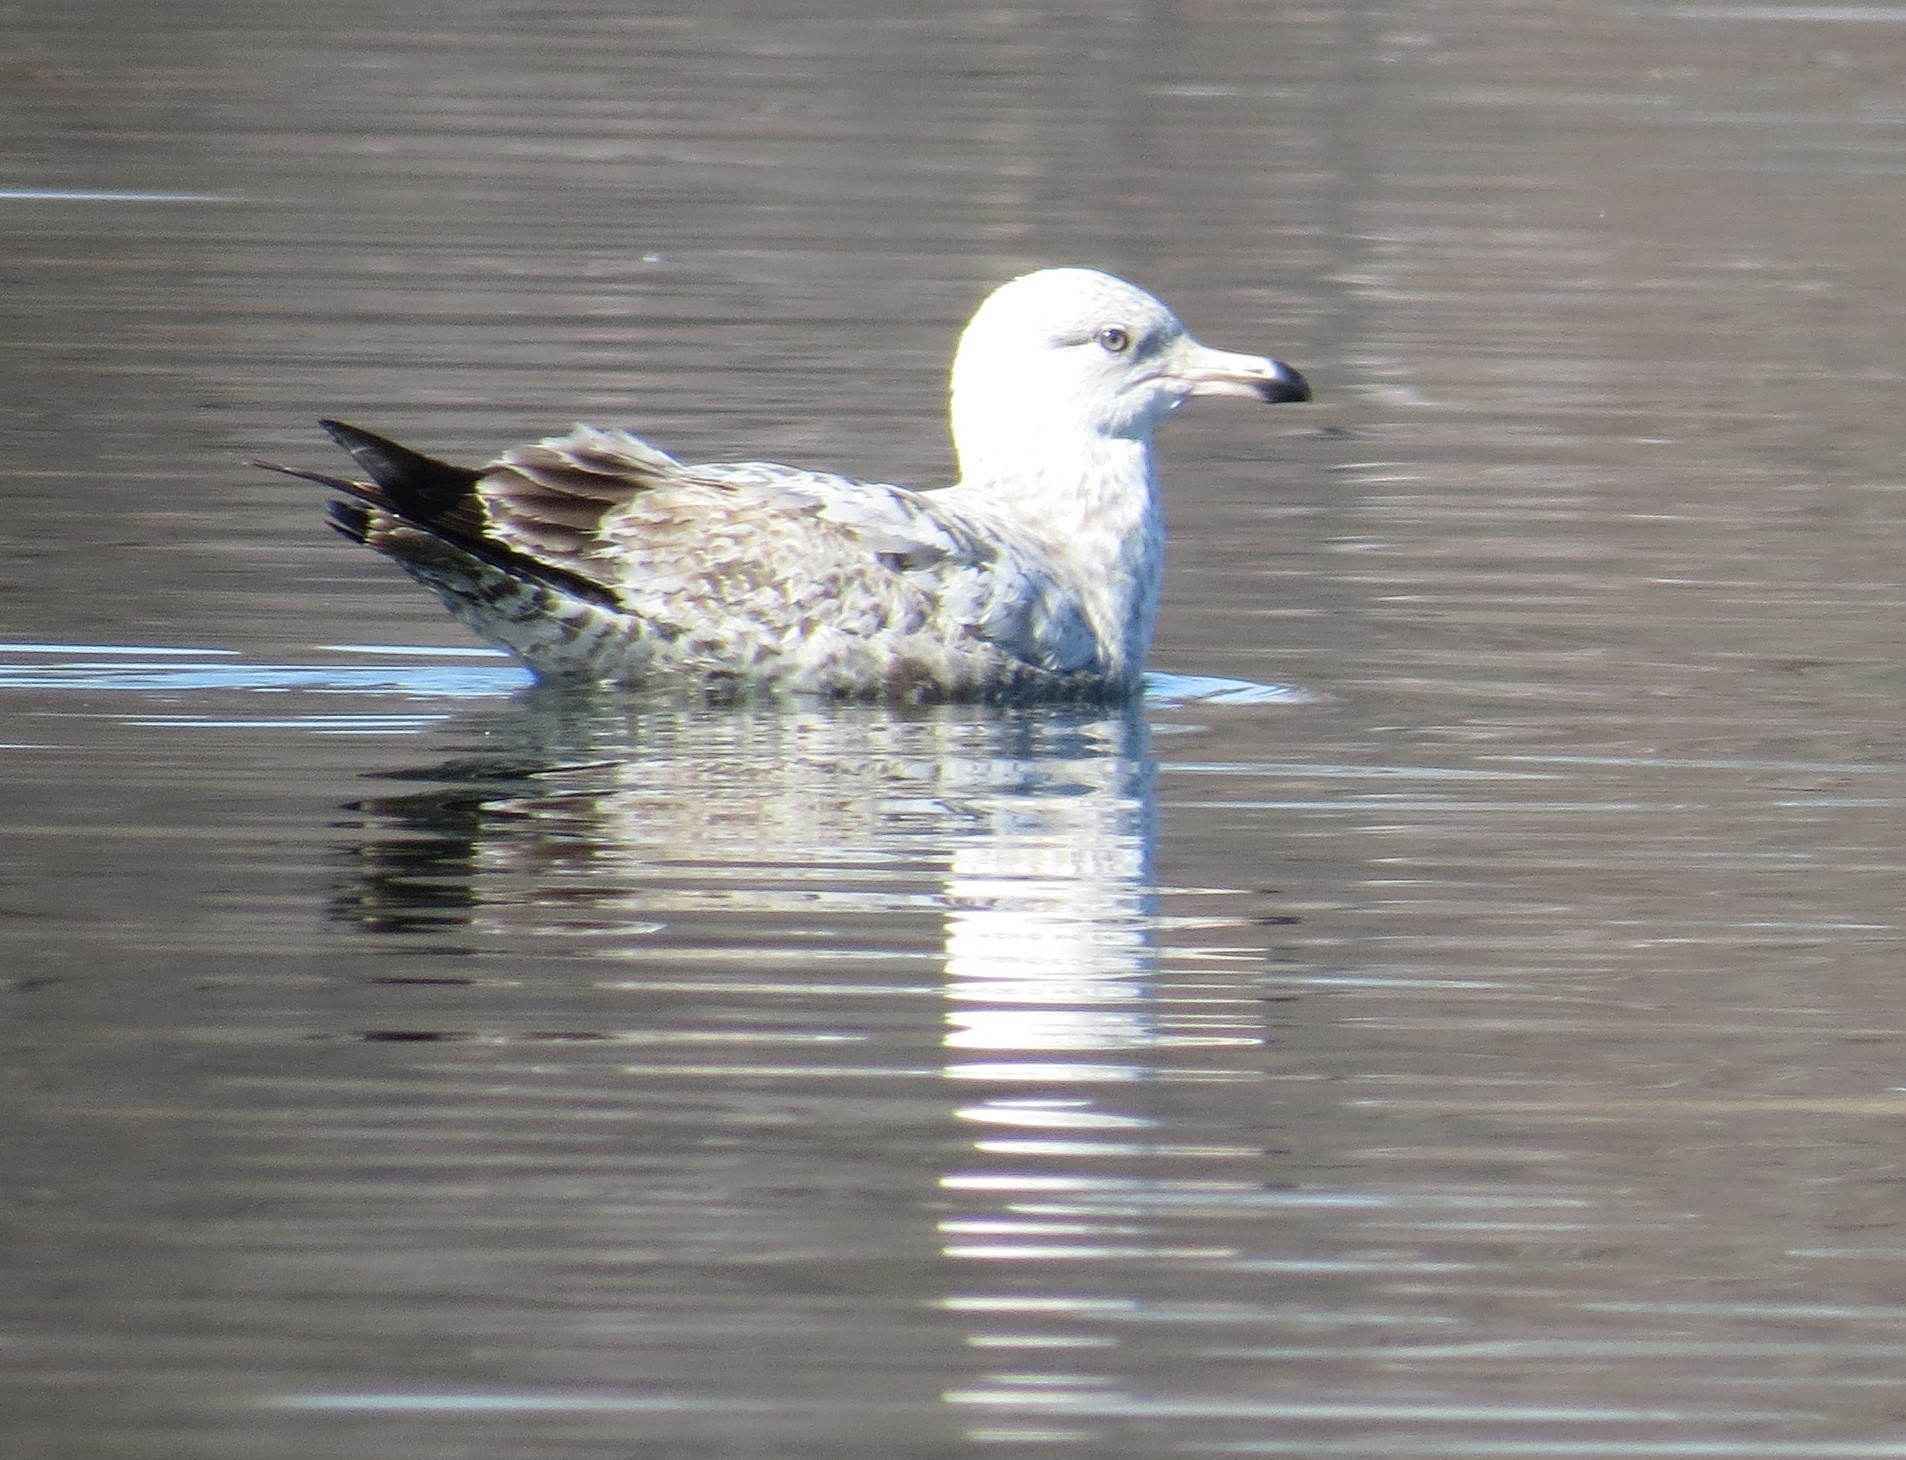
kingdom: Animalia
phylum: Chordata
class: Aves
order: Charadriiformes
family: Laridae
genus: Larus
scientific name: Larus argentatus
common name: Herring gull
